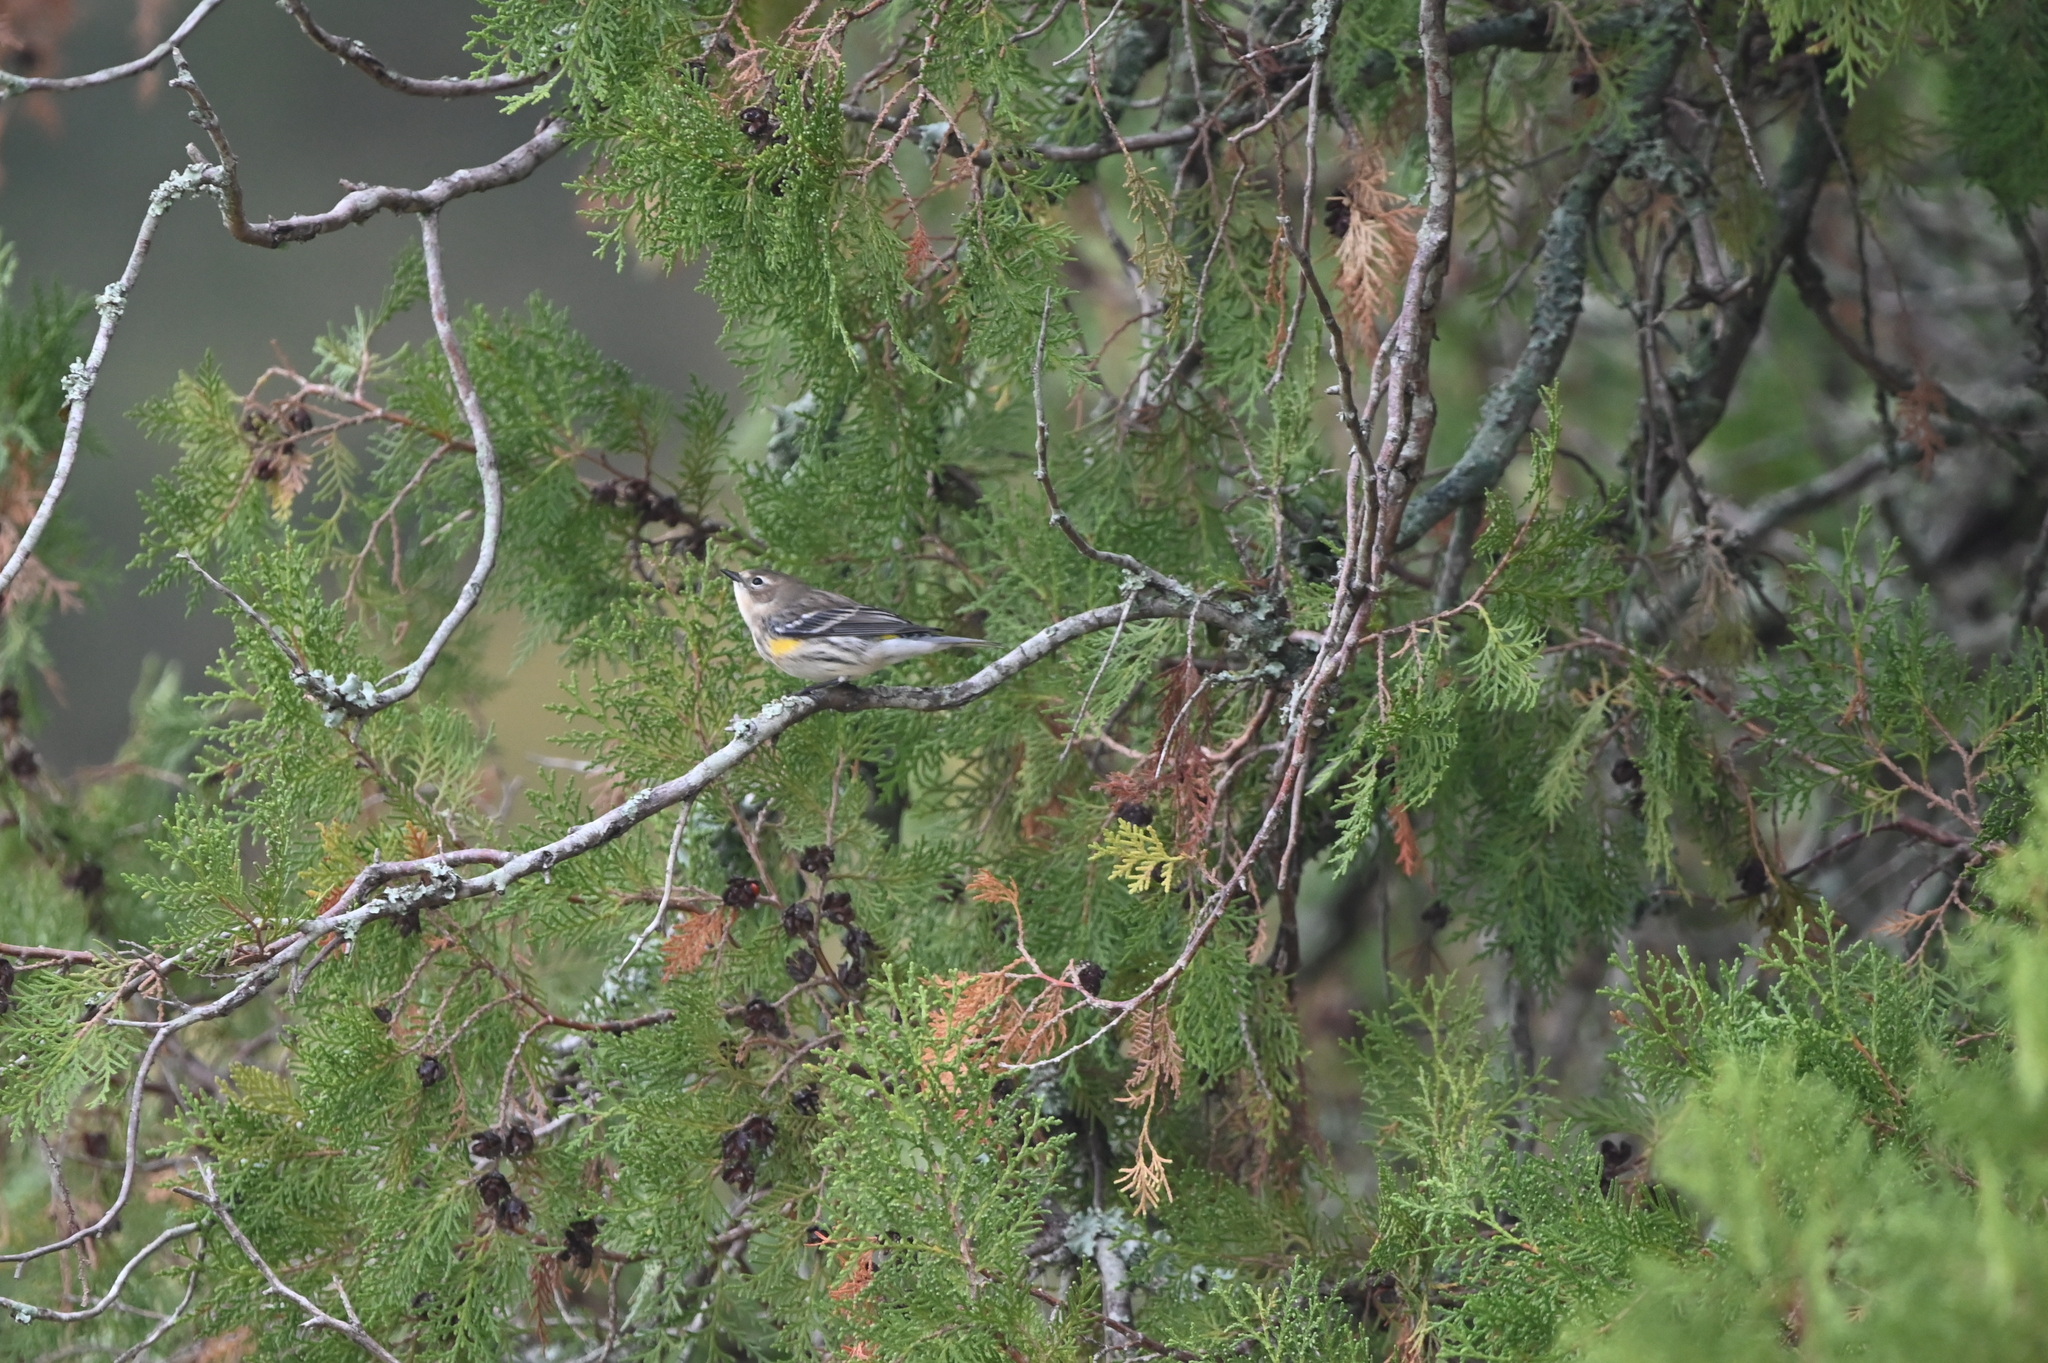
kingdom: Animalia
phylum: Chordata
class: Aves
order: Passeriformes
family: Parulidae
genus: Setophaga
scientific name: Setophaga coronata
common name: Myrtle warbler
